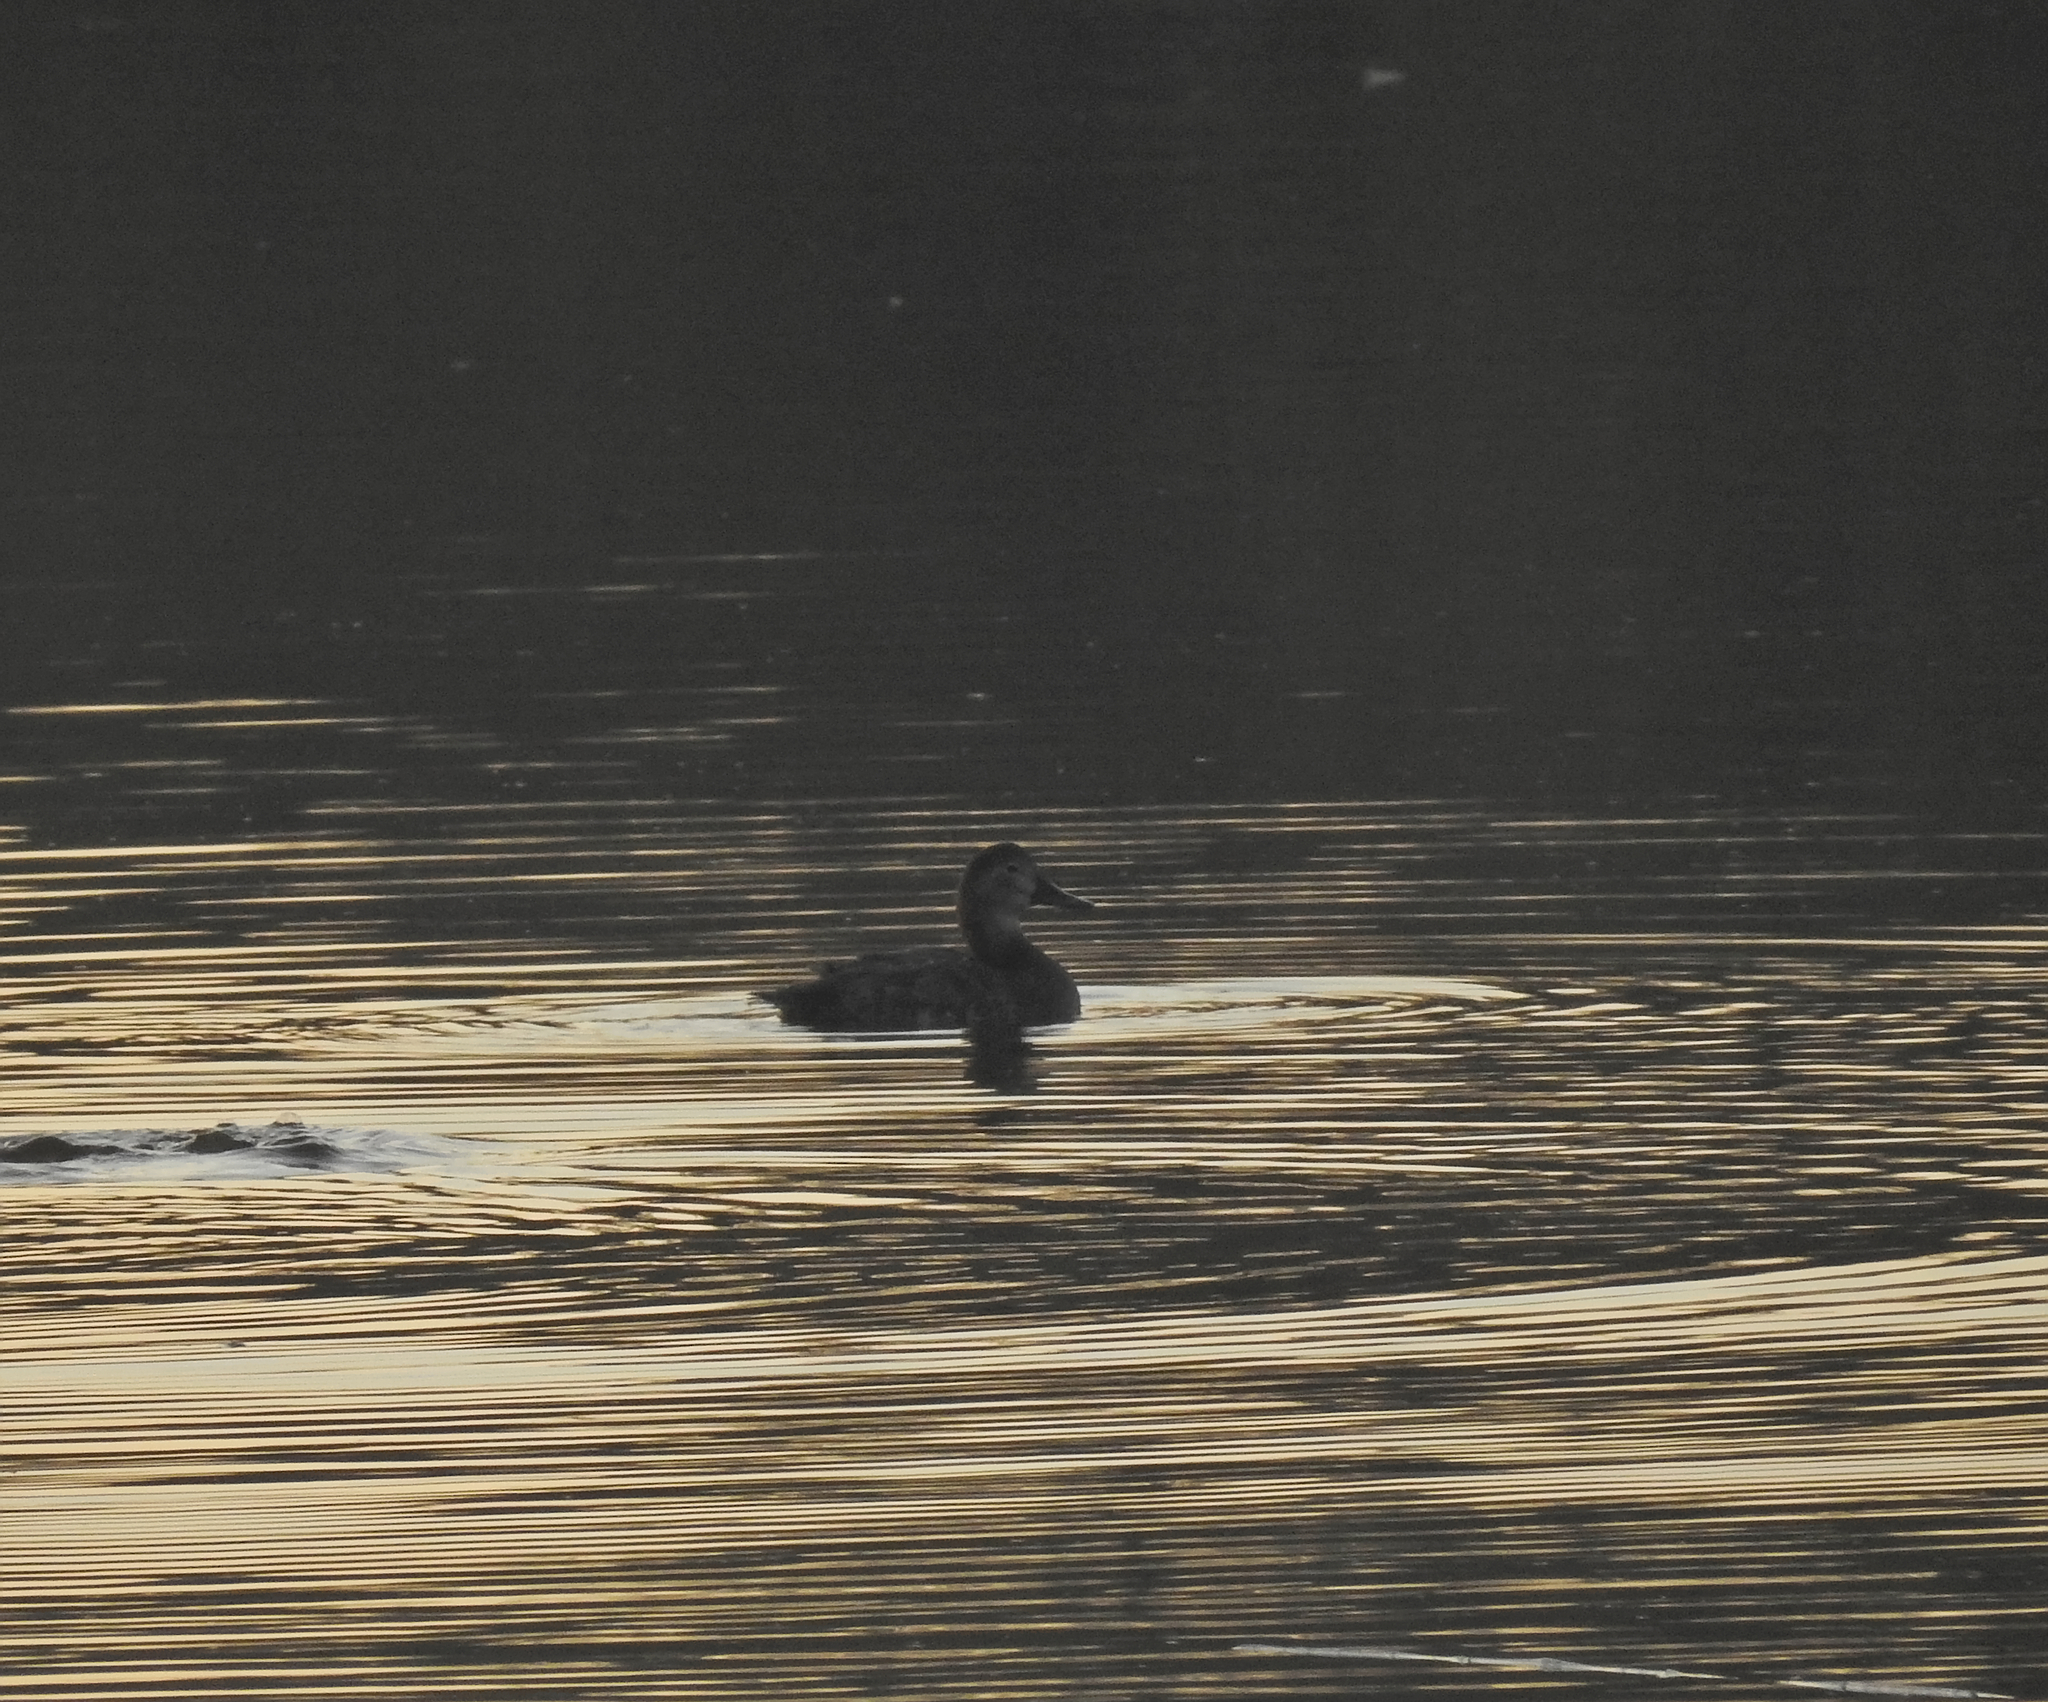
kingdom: Animalia
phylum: Chordata
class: Aves
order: Anseriformes
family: Anatidae
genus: Aythya
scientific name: Aythya ferina
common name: Common pochard
